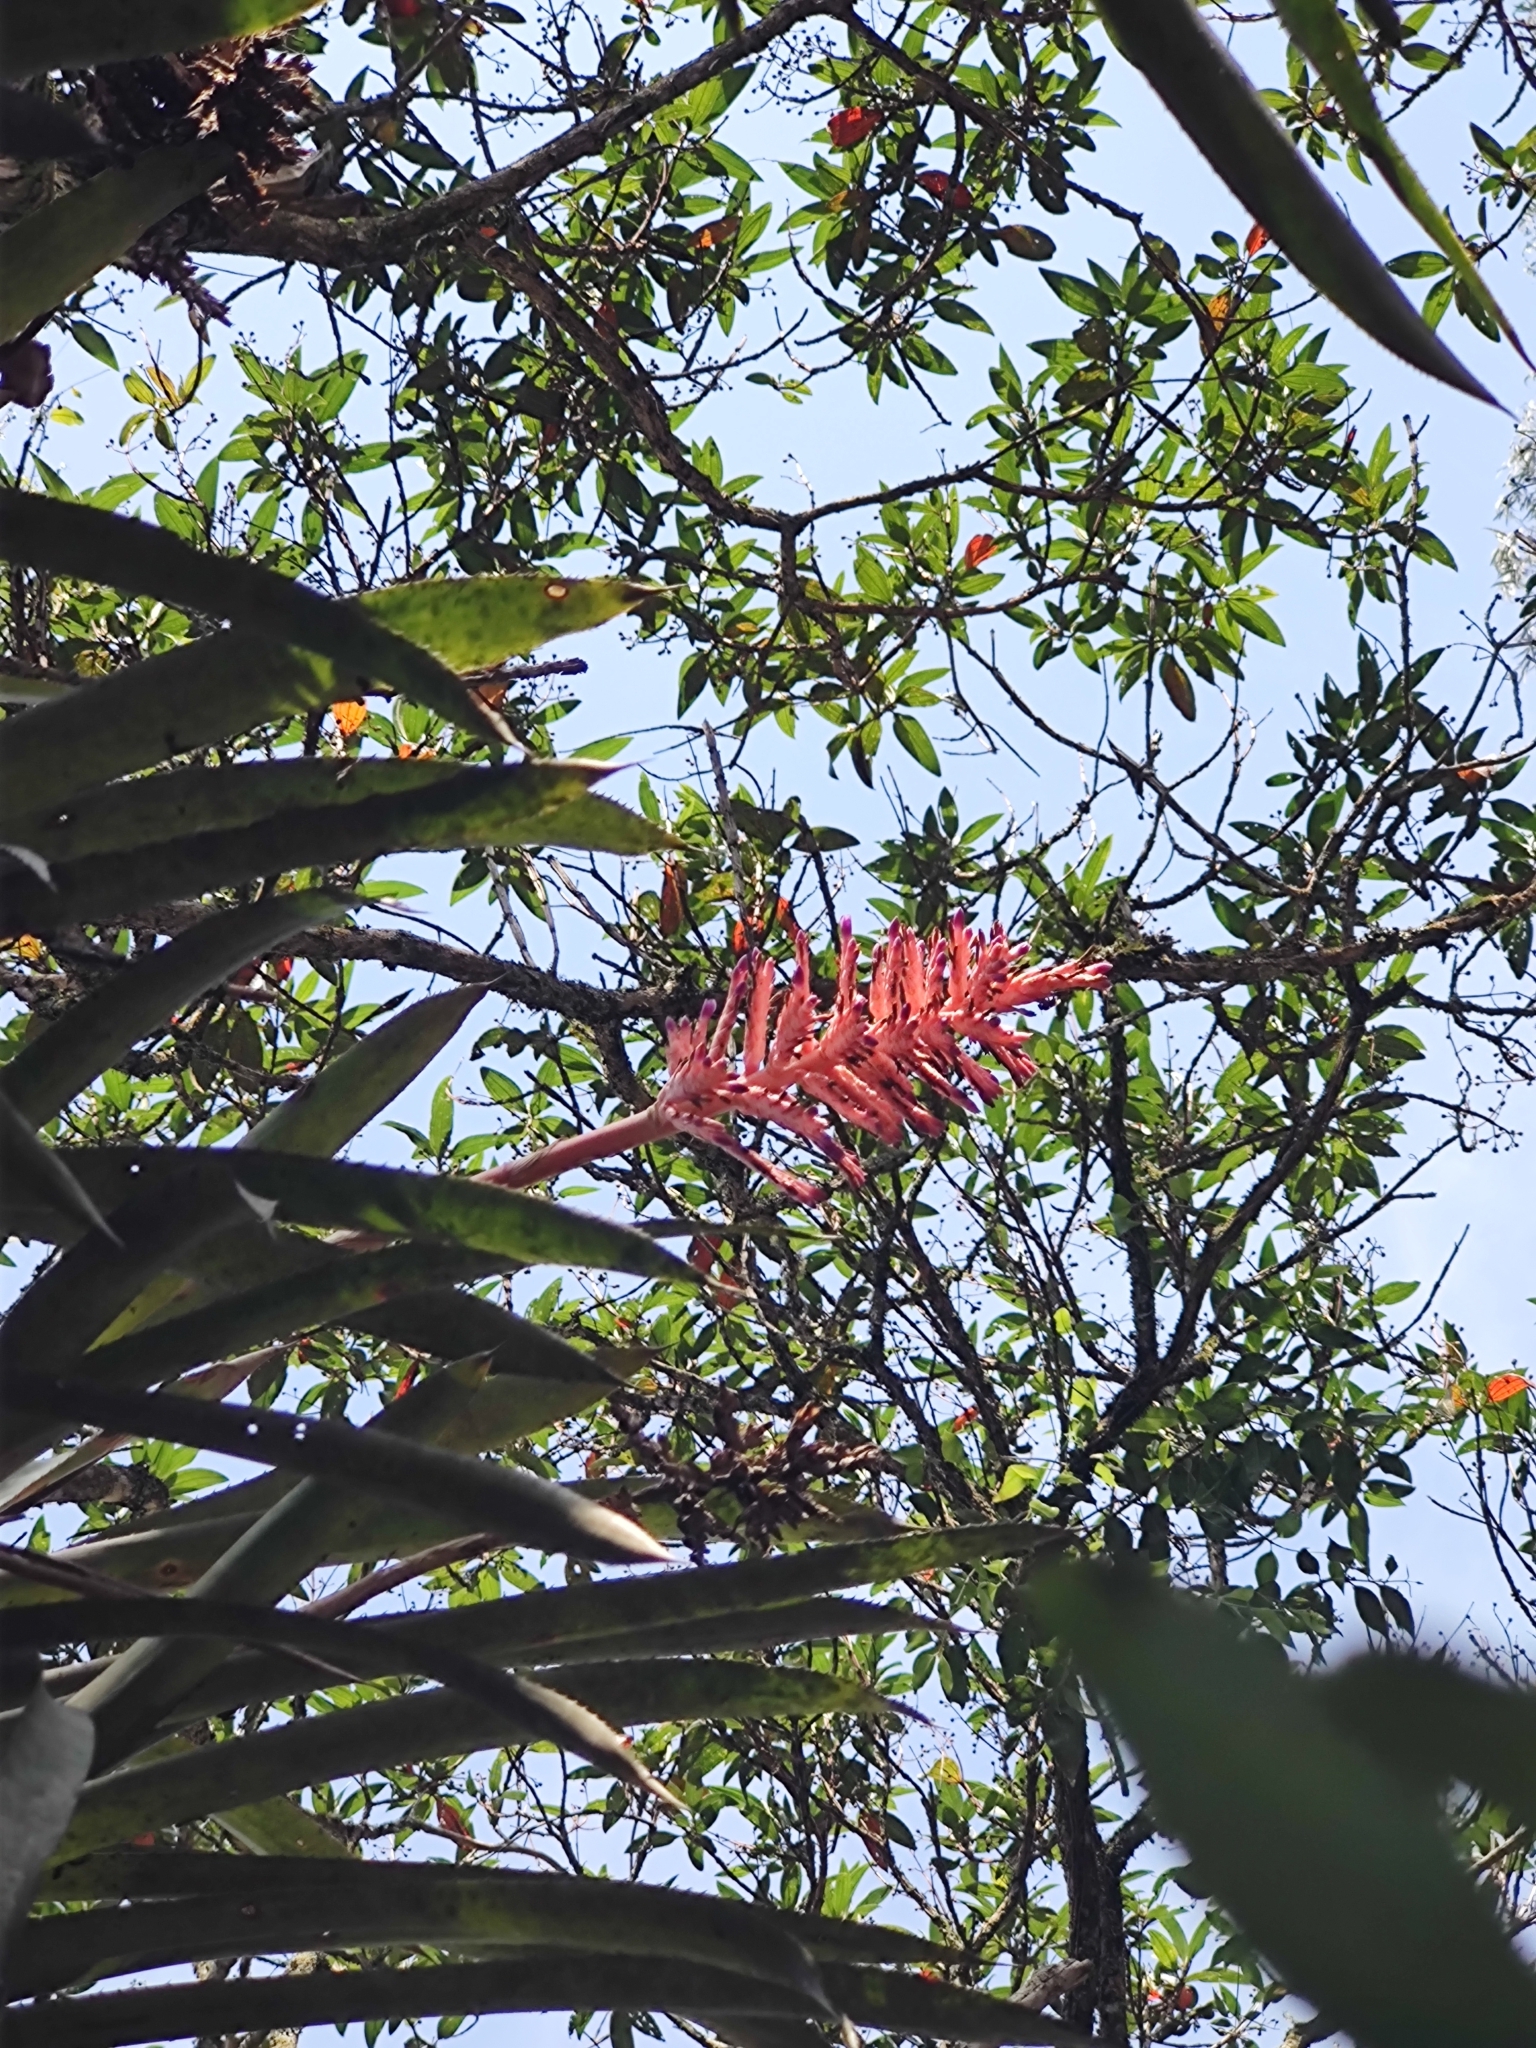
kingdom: Plantae
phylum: Tracheophyta
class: Liliopsida
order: Poales
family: Bromeliaceae
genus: Aechmea
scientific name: Aechmea distichantha
